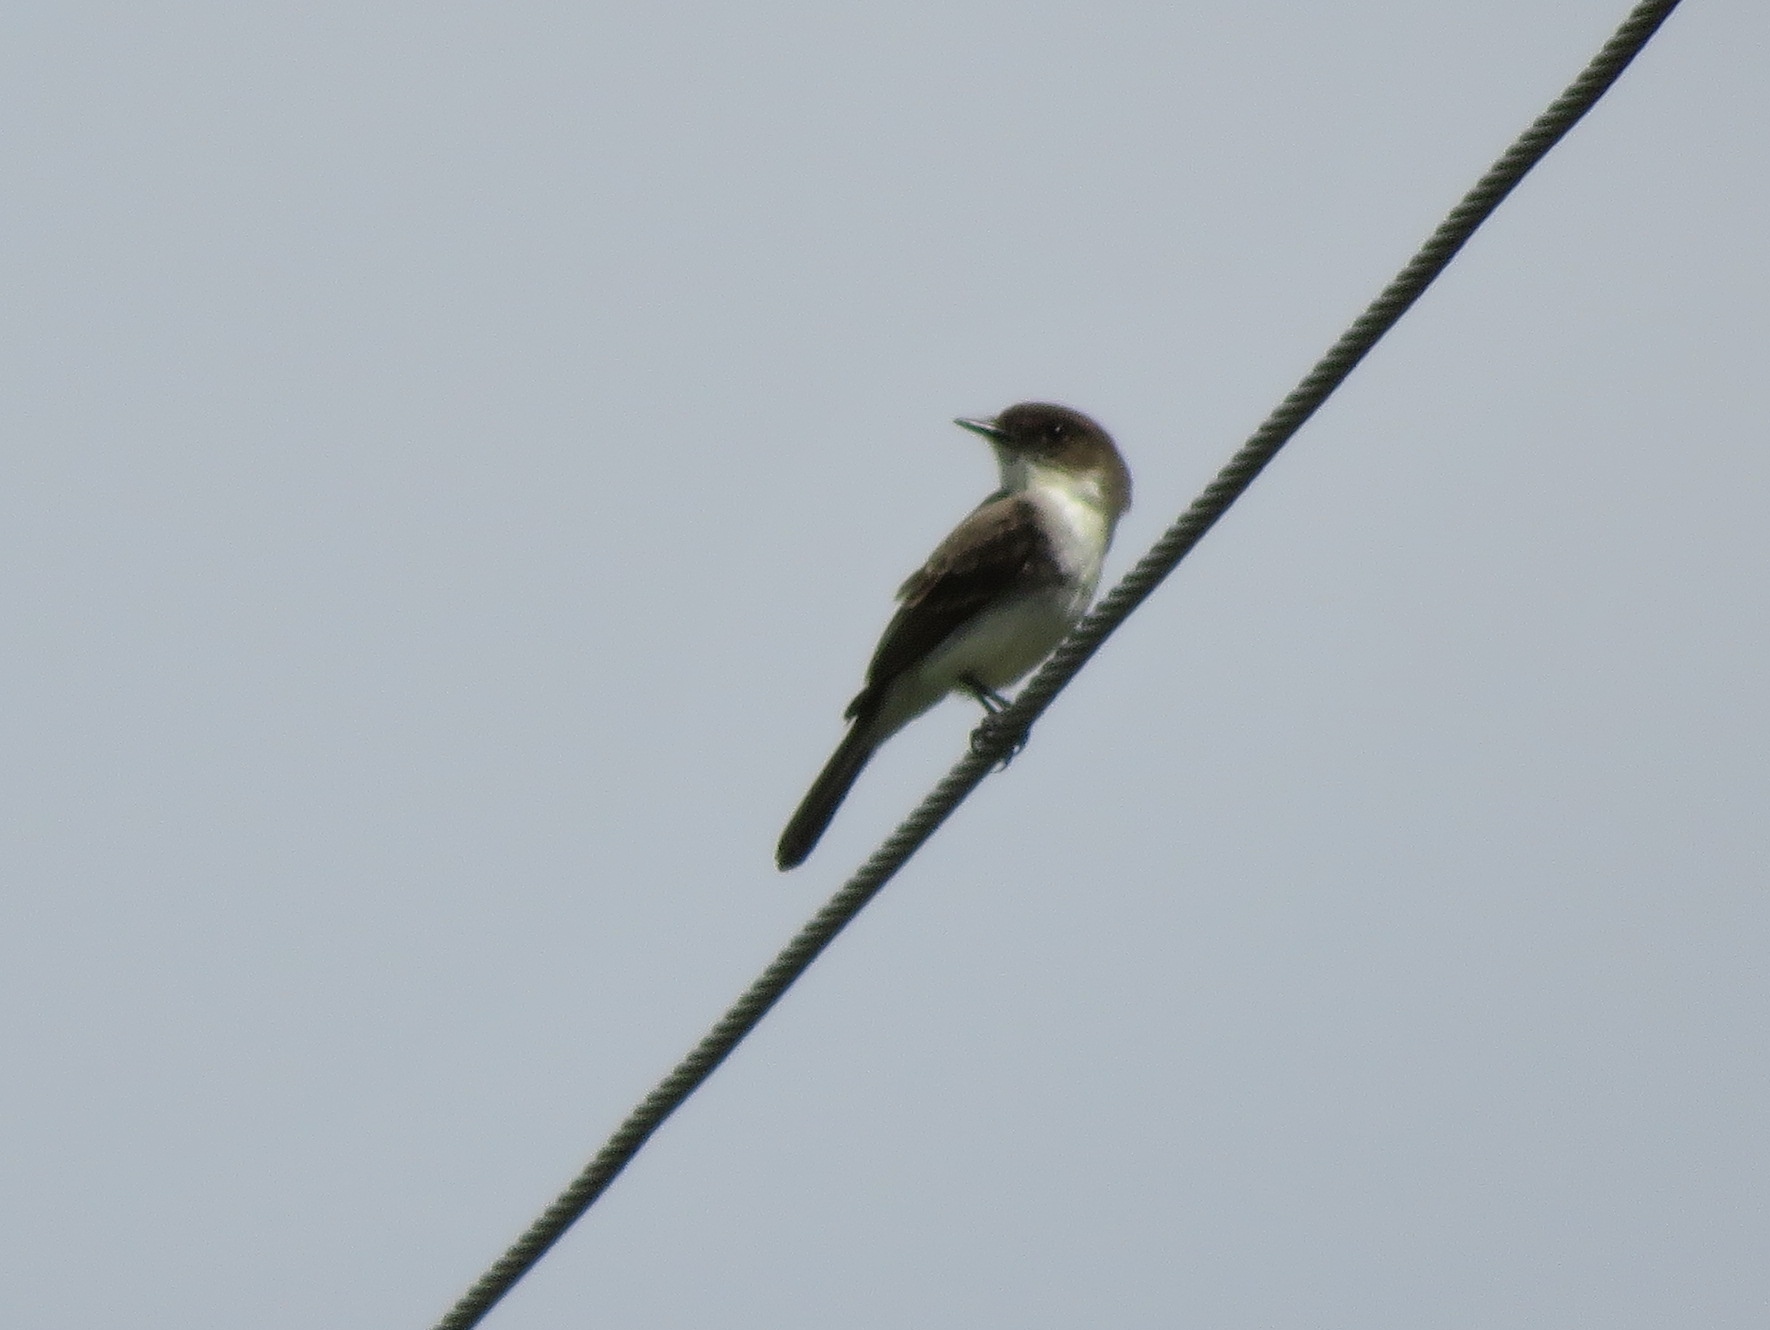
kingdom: Animalia
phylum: Chordata
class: Aves
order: Passeriformes
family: Tyrannidae
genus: Sayornis
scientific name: Sayornis phoebe
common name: Eastern phoebe
